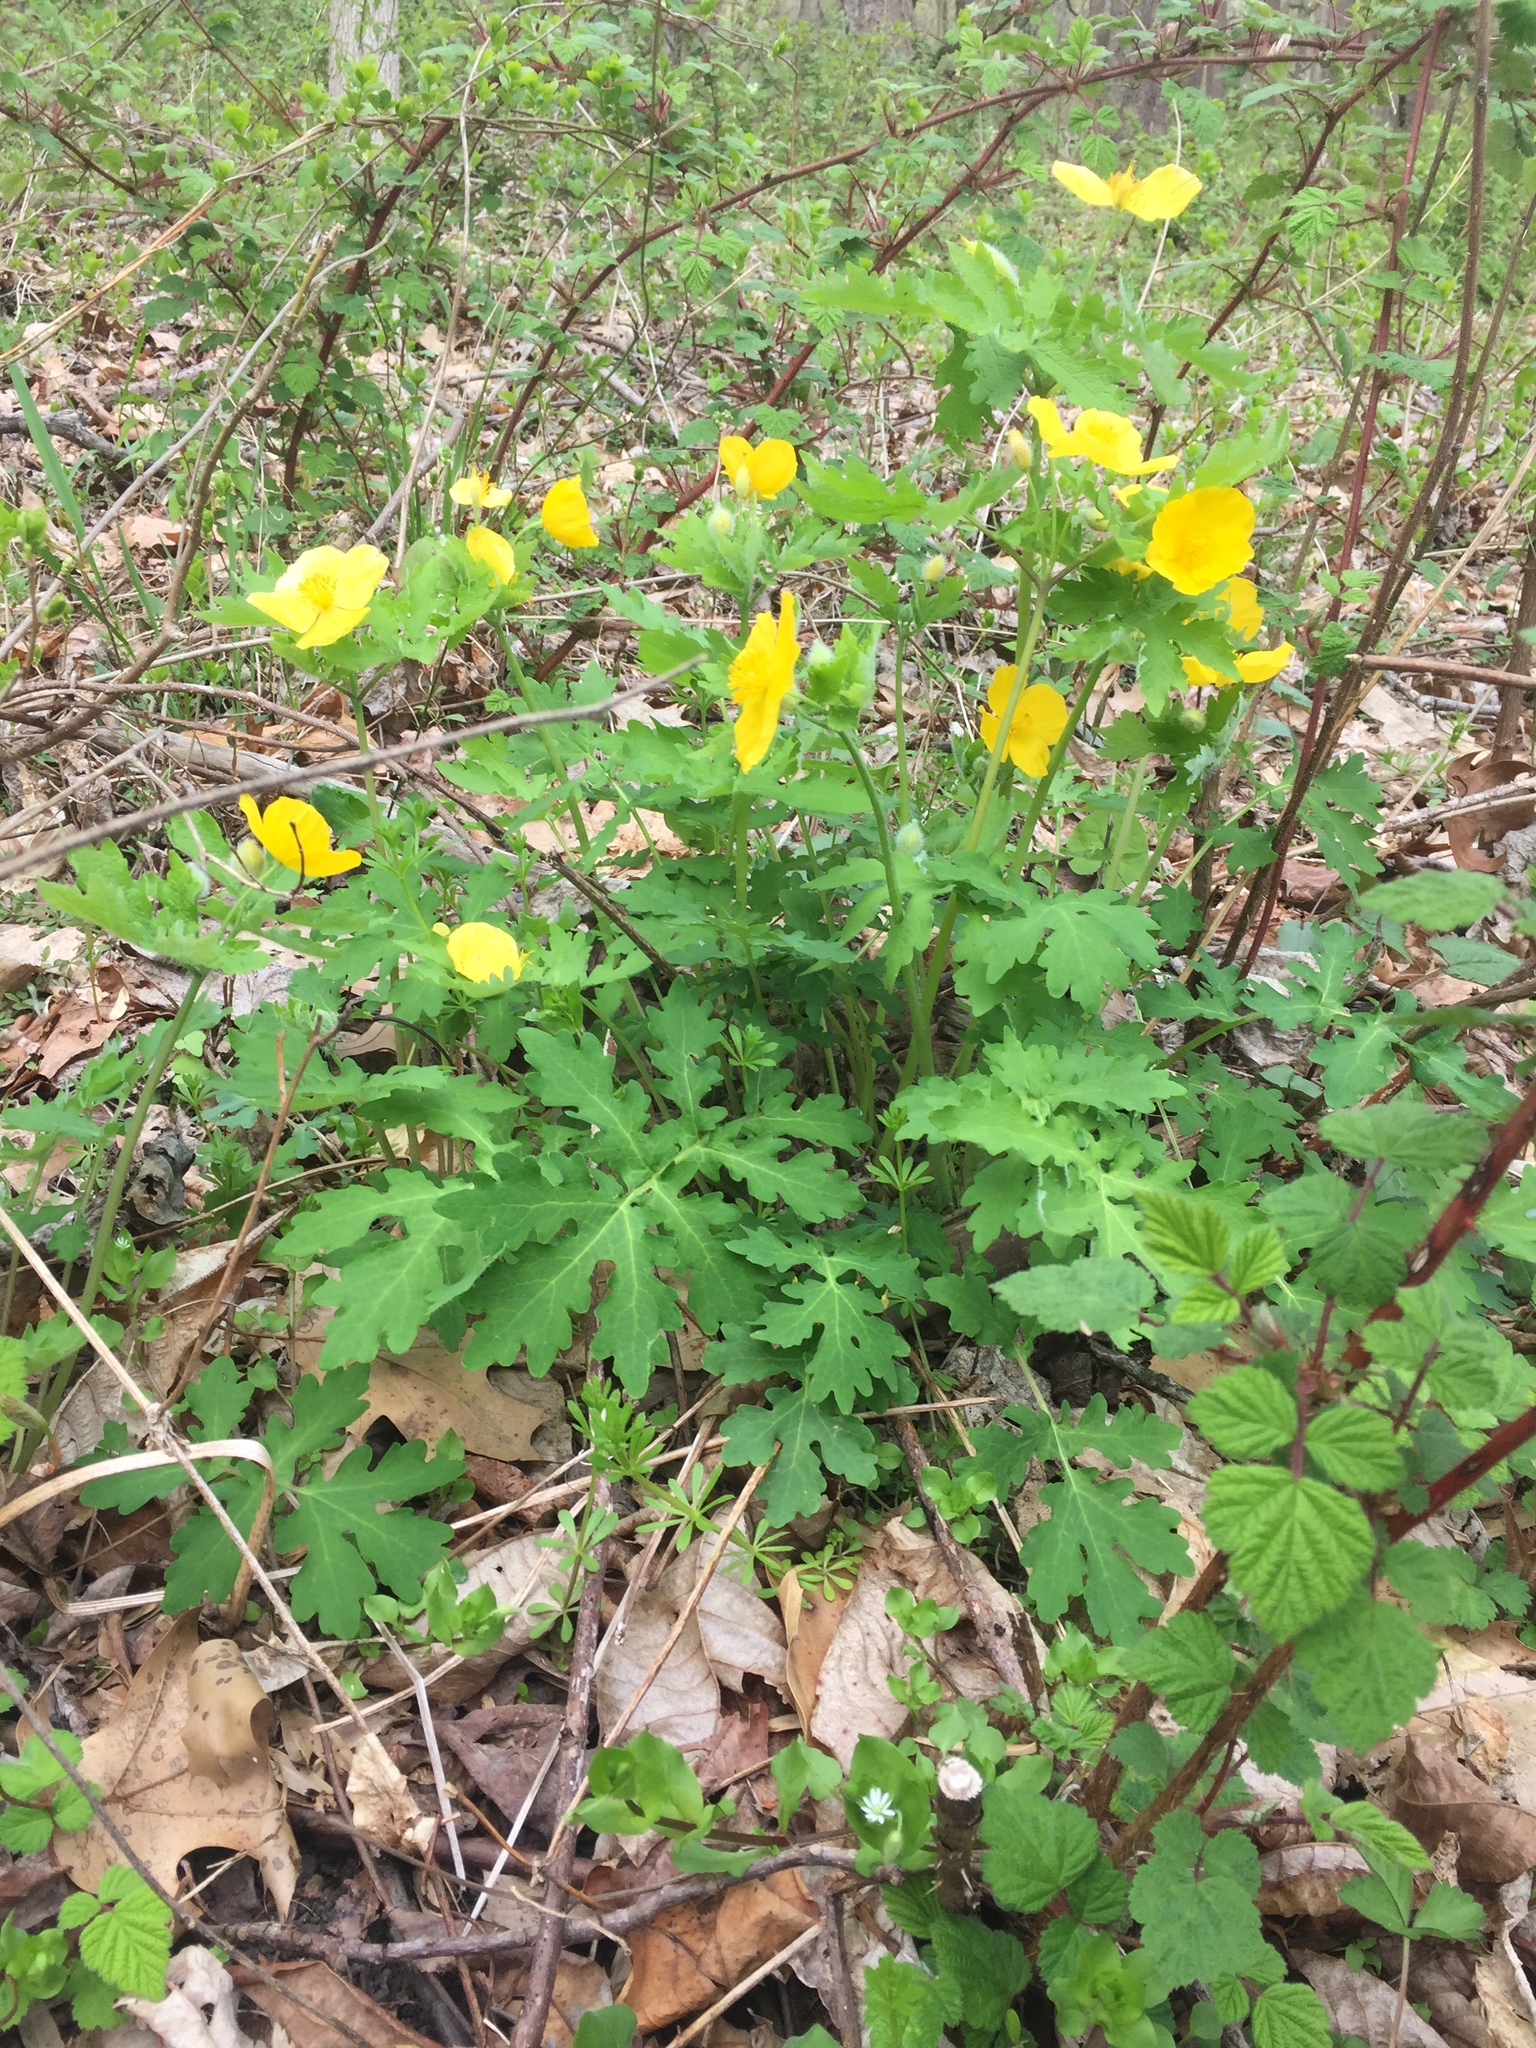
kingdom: Plantae
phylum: Tracheophyta
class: Magnoliopsida
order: Ranunculales
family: Papaveraceae
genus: Stylophorum
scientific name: Stylophorum diphyllum
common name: Celandine poppy
